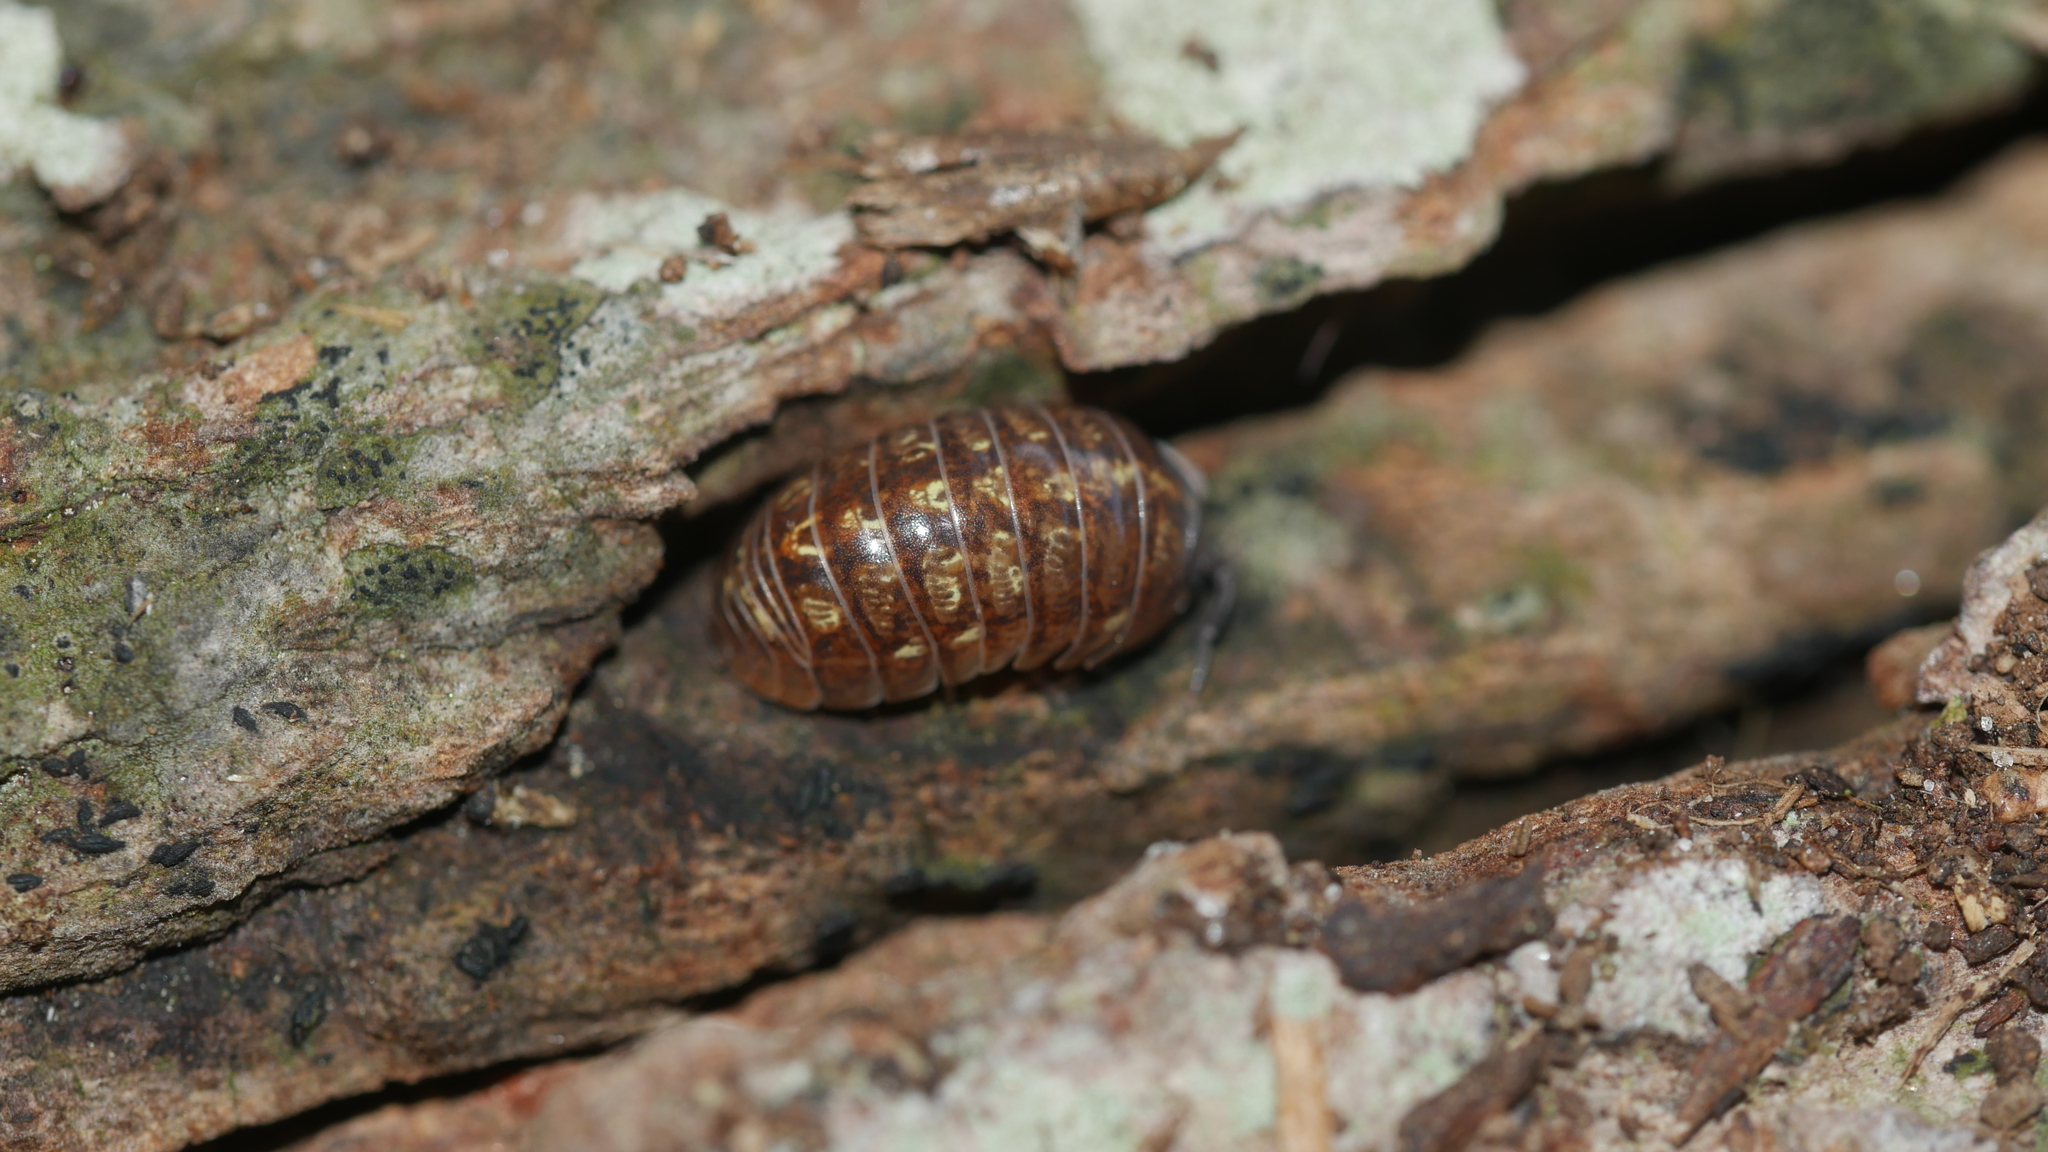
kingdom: Animalia
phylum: Arthropoda
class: Malacostraca
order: Isopoda
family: Armadillidiidae
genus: Armadillidium
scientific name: Armadillidium vulgare
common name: Common pill woodlouse
